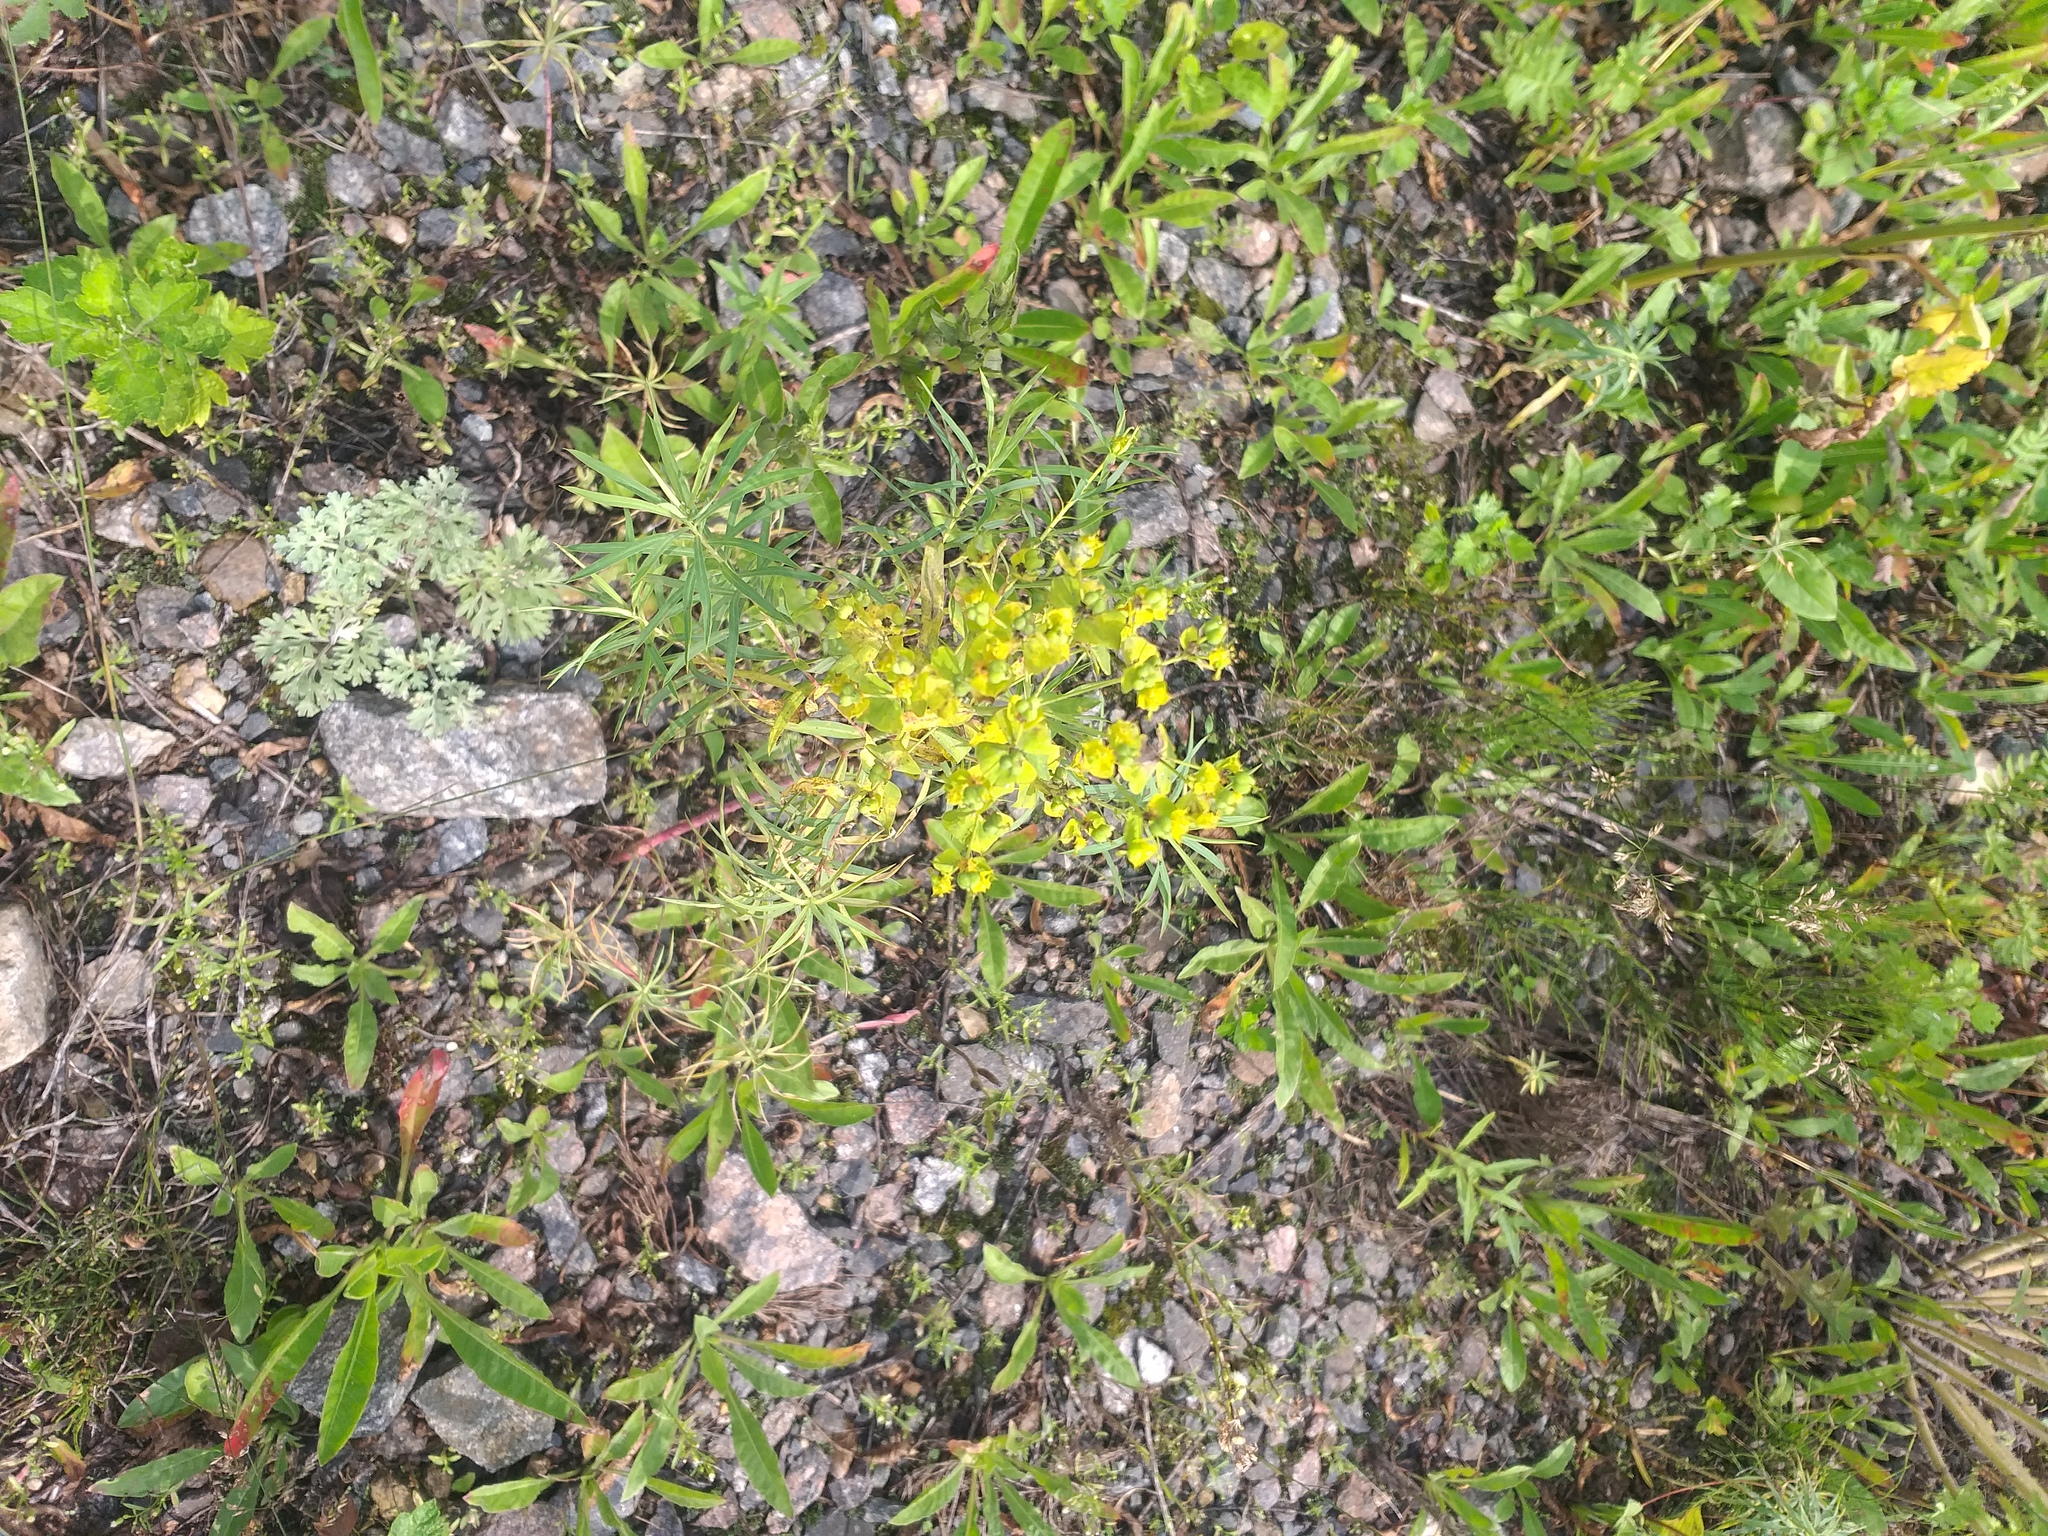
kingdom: Plantae
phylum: Tracheophyta
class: Magnoliopsida
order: Malpighiales
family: Euphorbiaceae
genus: Euphorbia
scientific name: Euphorbia virgata
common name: Leafy spurge
